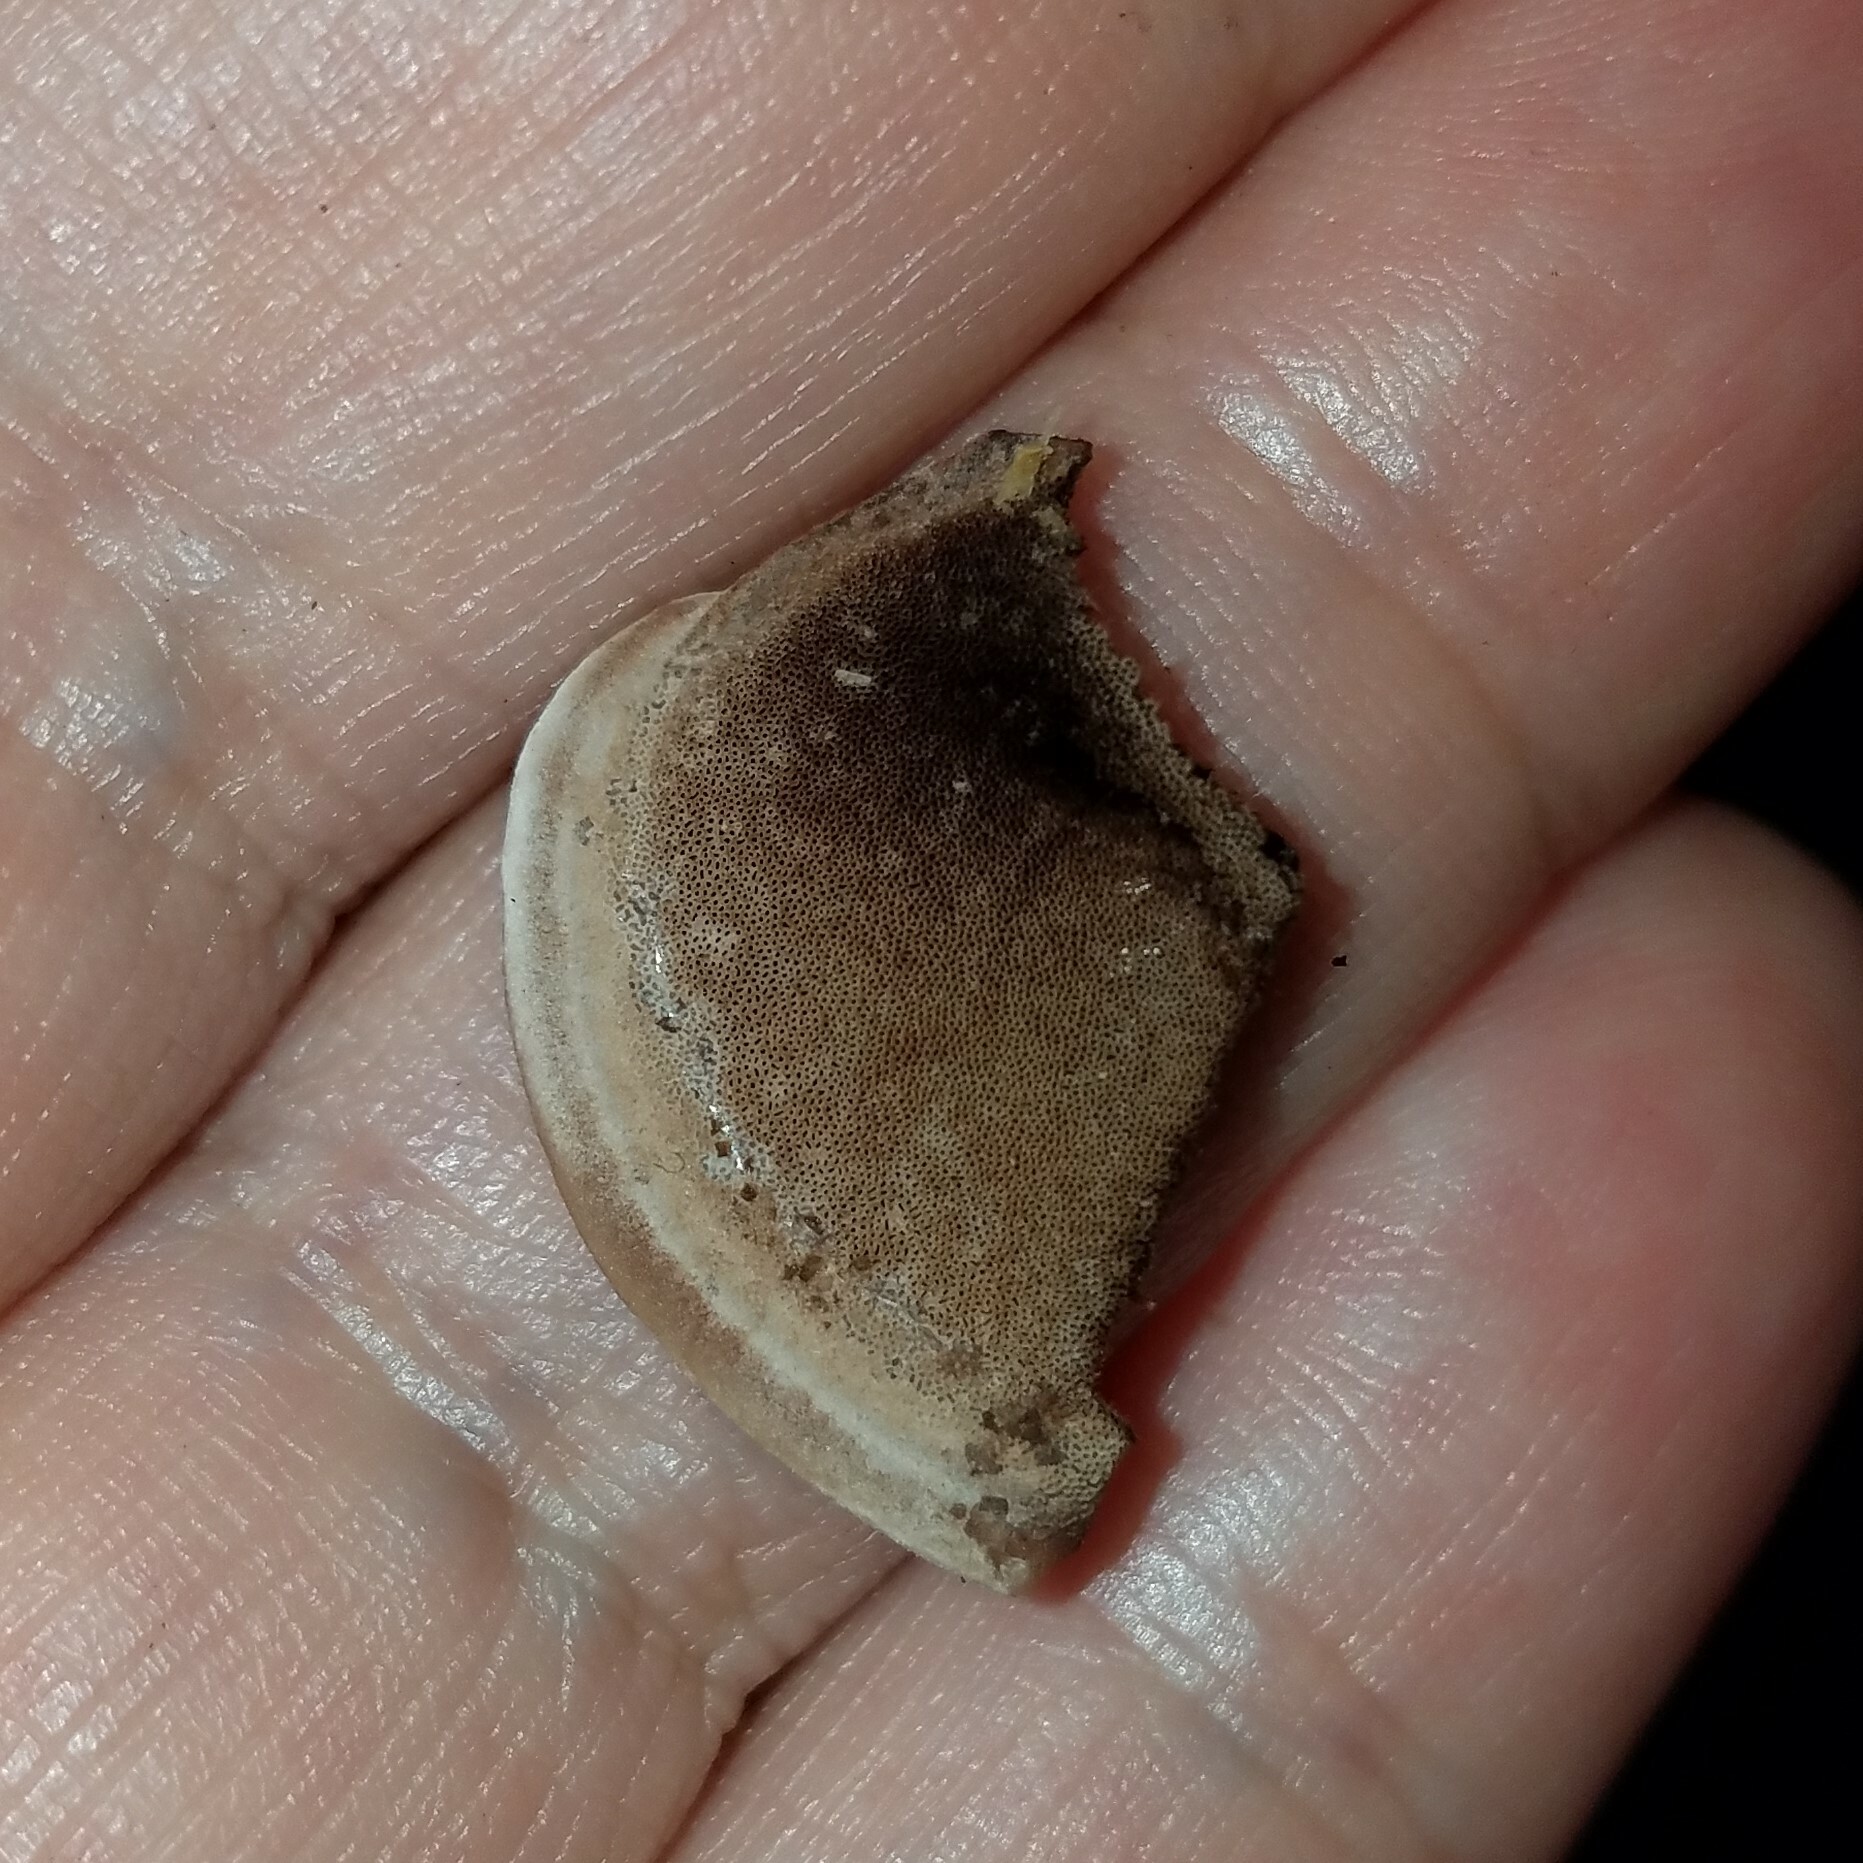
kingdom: Fungi
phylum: Basidiomycota
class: Agaricomycetes
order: Polyporales
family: Steccherinaceae
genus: Nigroporus
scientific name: Nigroporus vinosus
